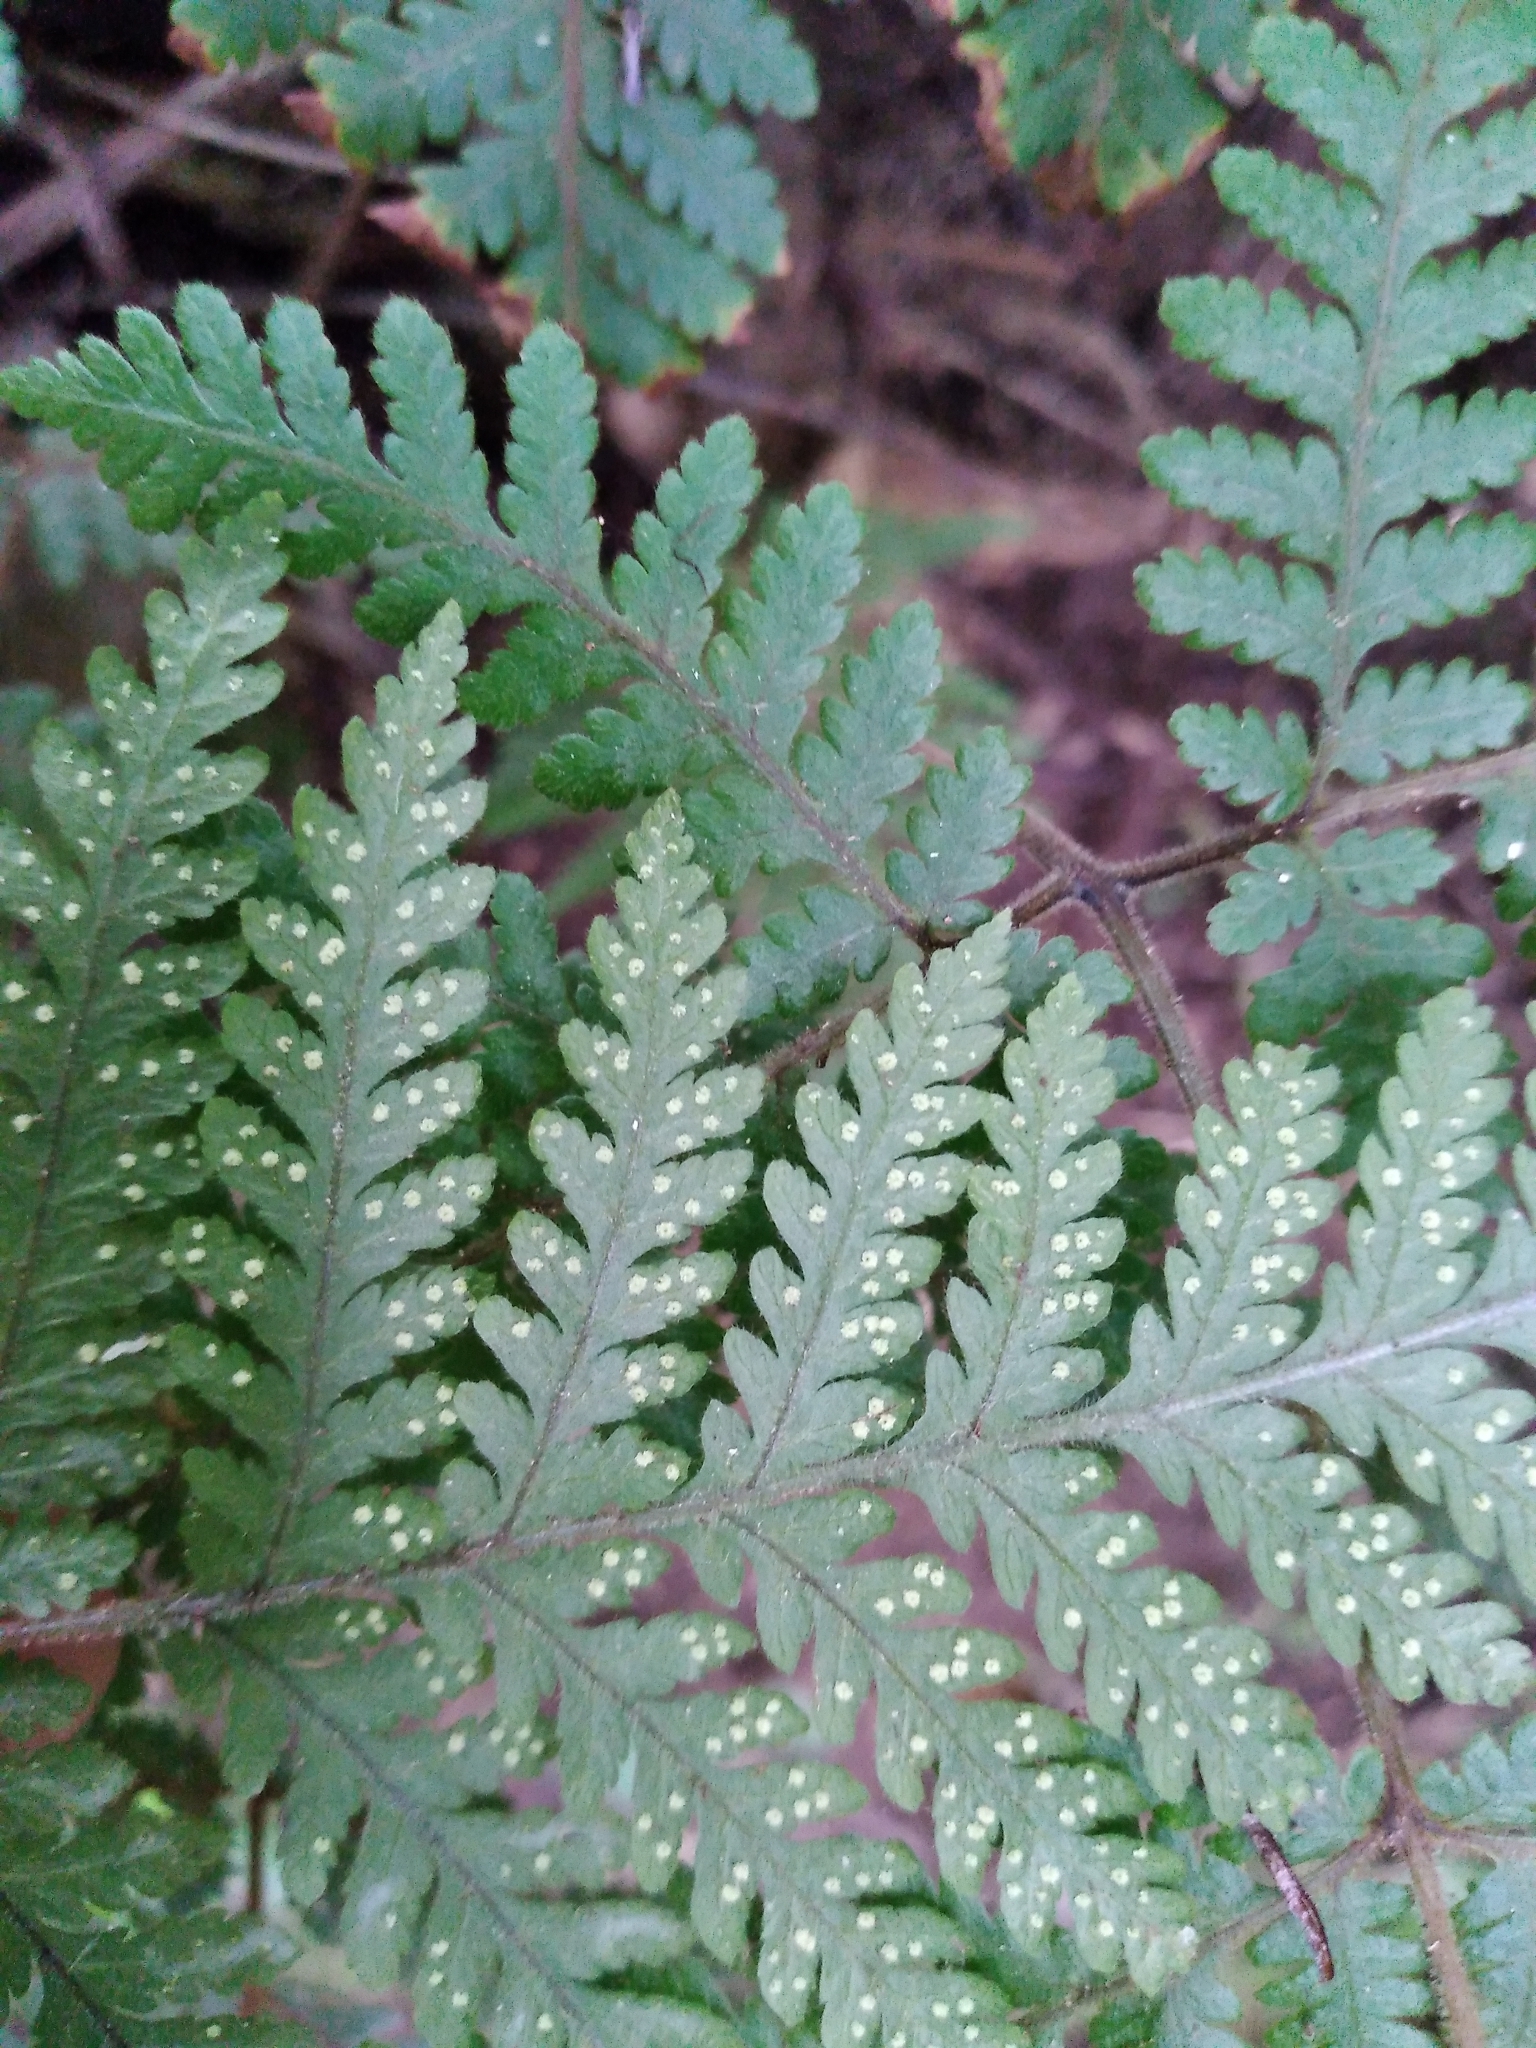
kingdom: Plantae
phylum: Tracheophyta
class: Polypodiopsida
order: Polypodiales
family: Dryopteridaceae
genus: Lastreopsis
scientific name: Lastreopsis velutina
